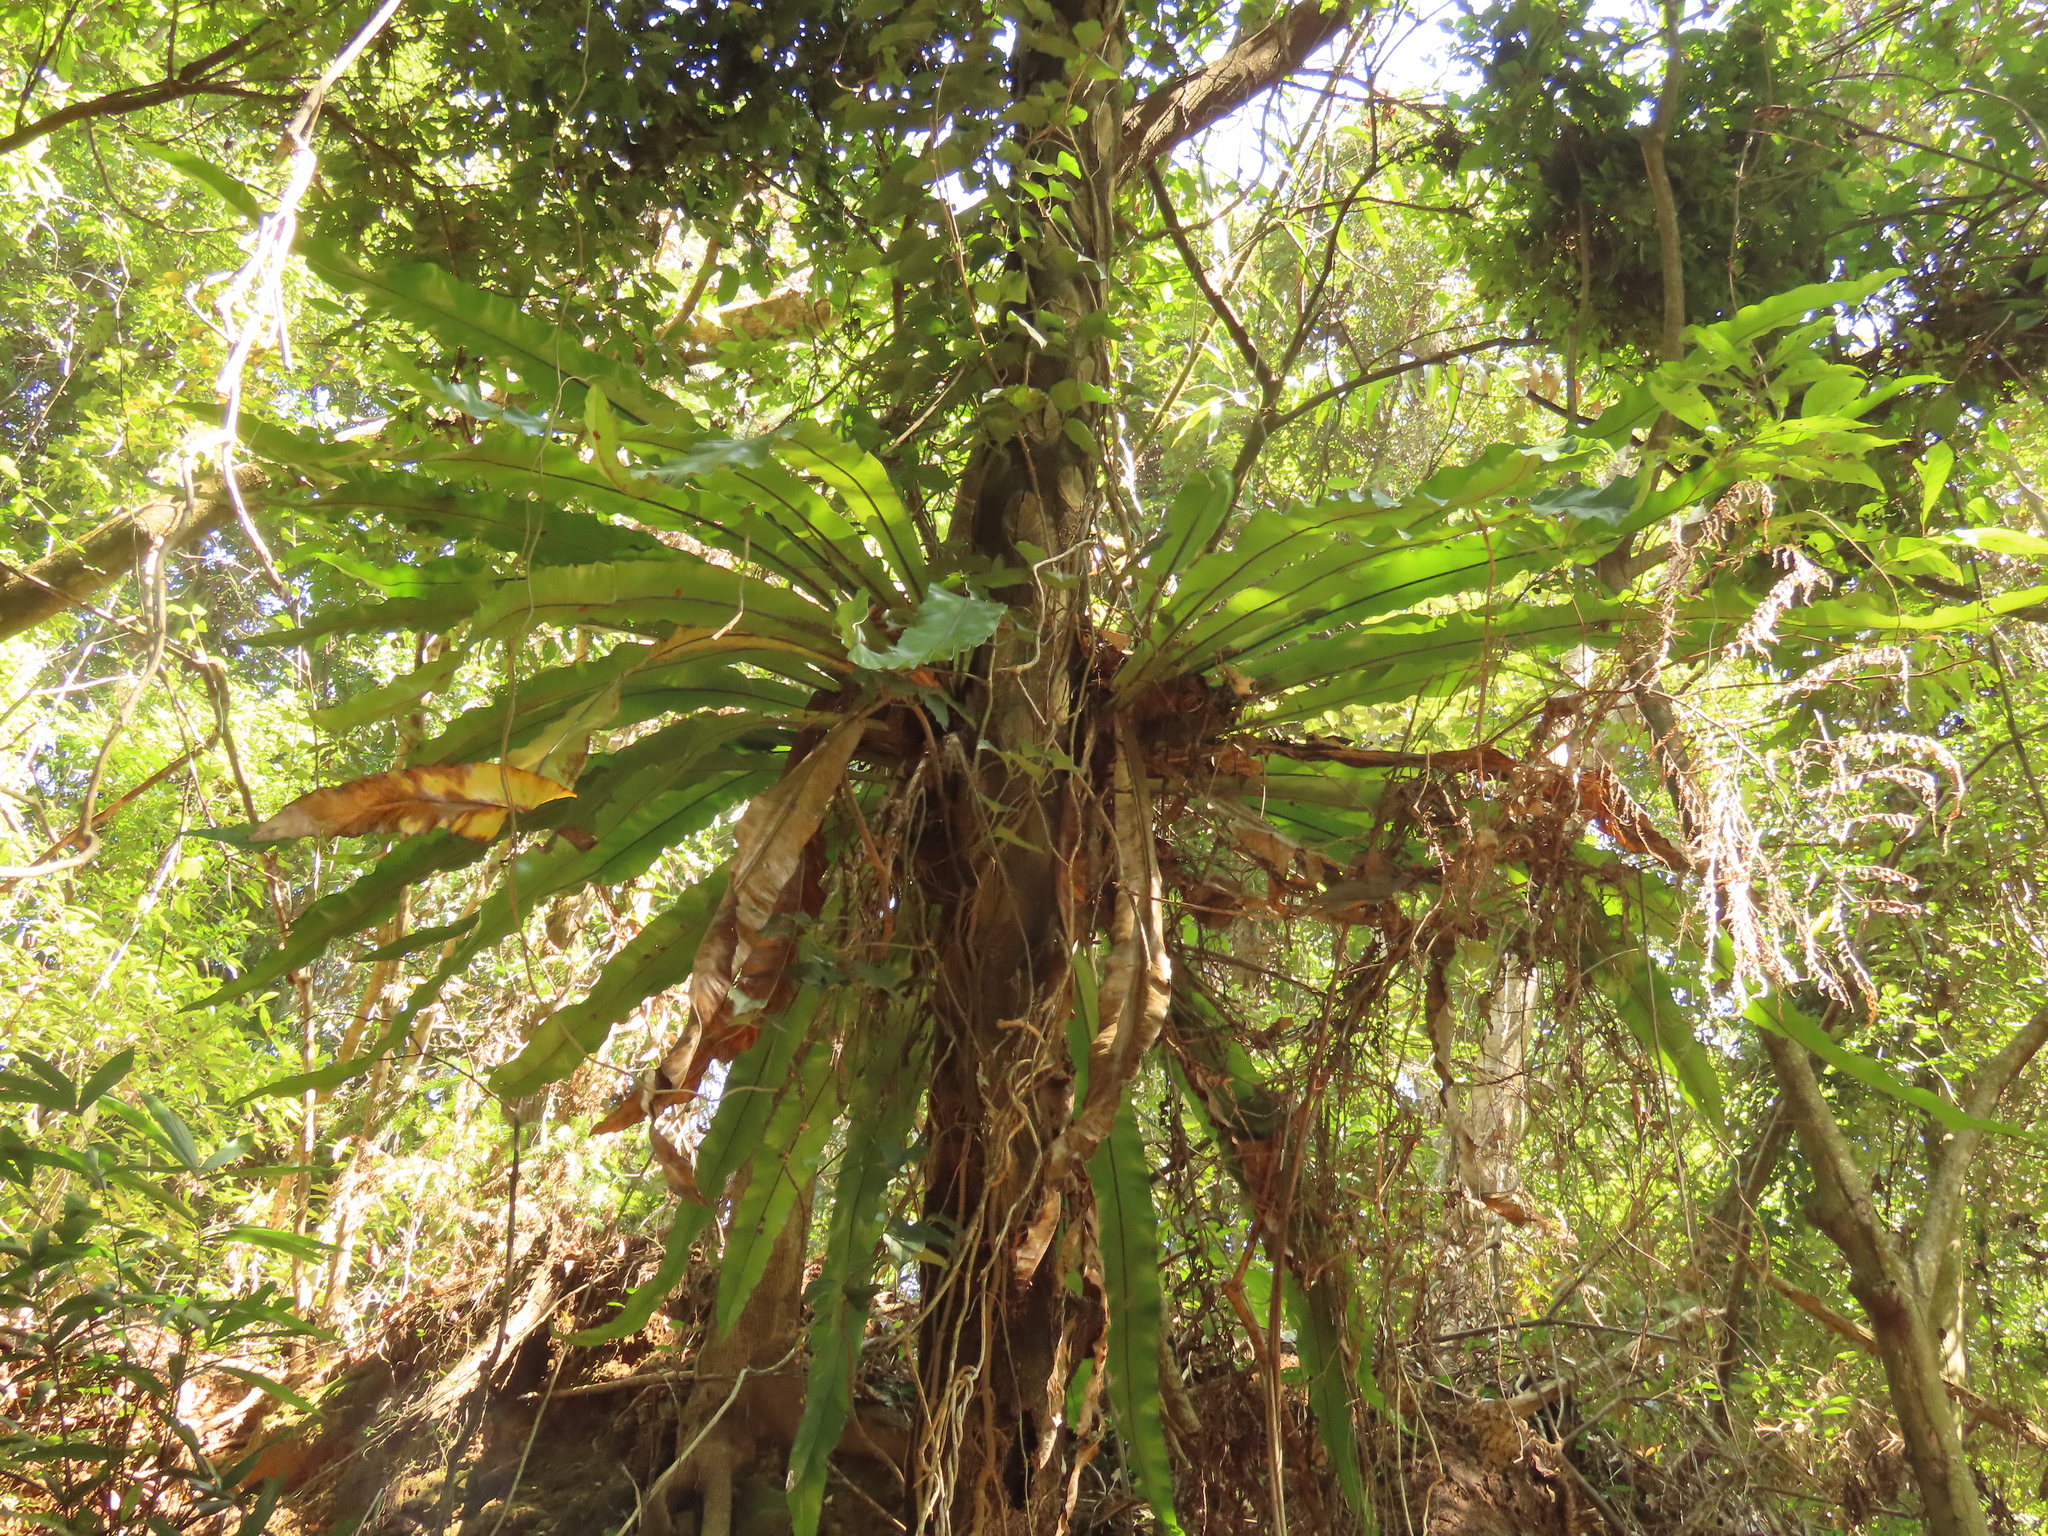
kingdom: Plantae
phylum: Tracheophyta
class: Polypodiopsida
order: Polypodiales
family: Aspleniaceae
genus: Asplenium
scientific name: Asplenium setoi
